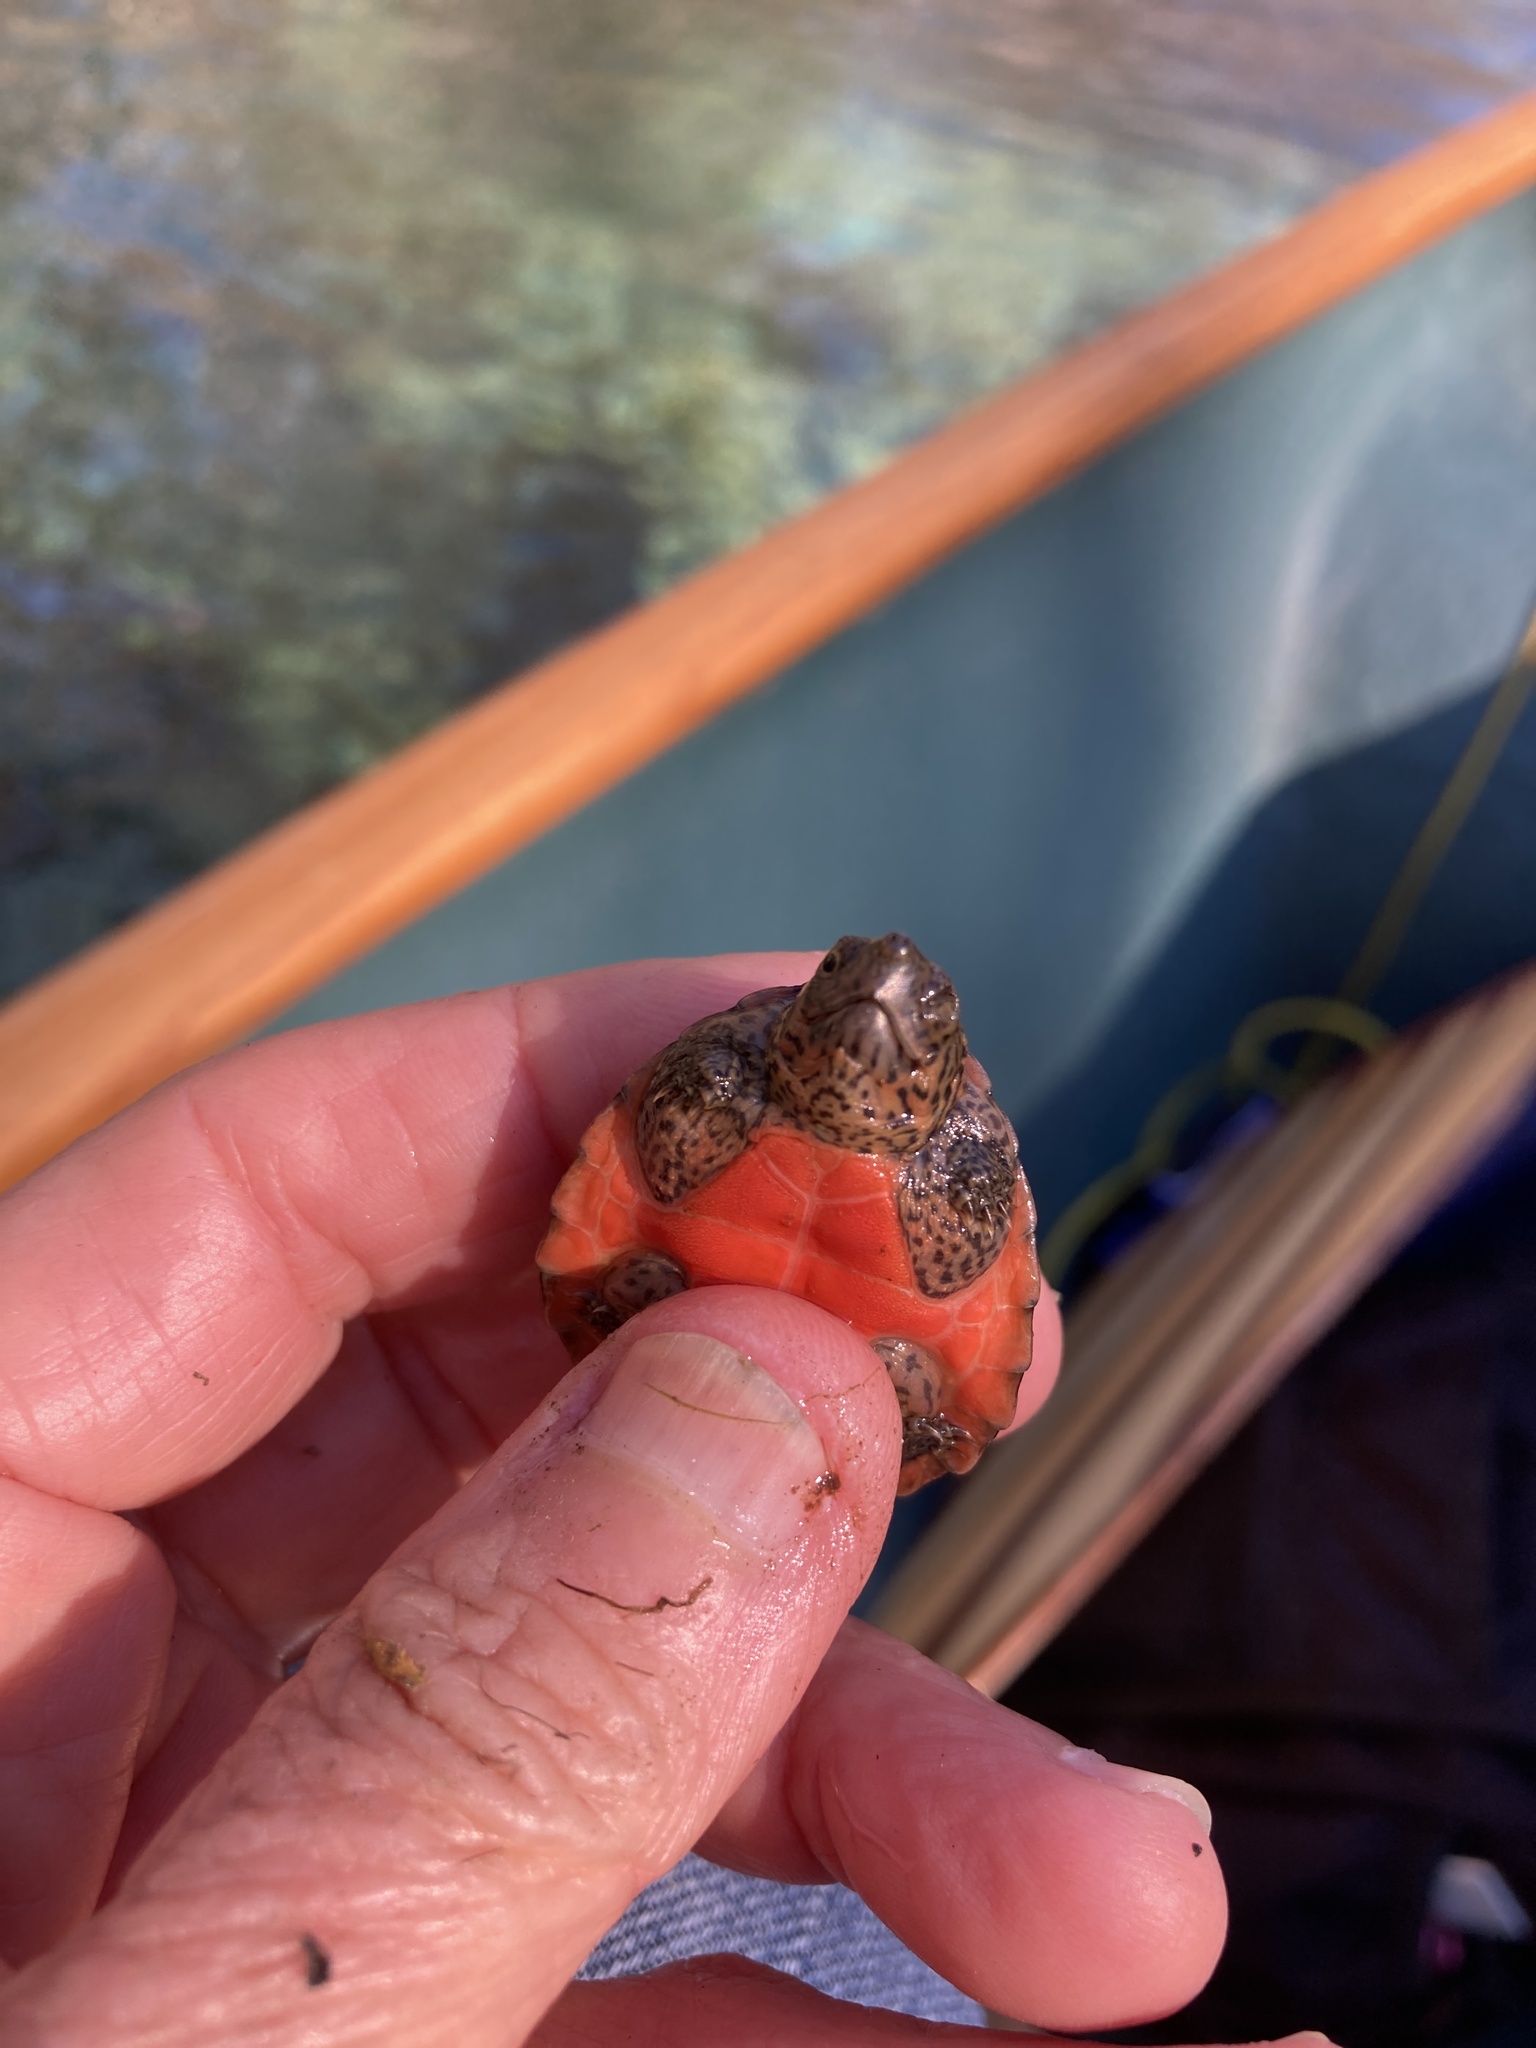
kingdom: Animalia
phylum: Chordata
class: Testudines
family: Kinosternidae
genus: Sternotherus
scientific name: Sternotherus minor
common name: Loggerhead musk turtle
